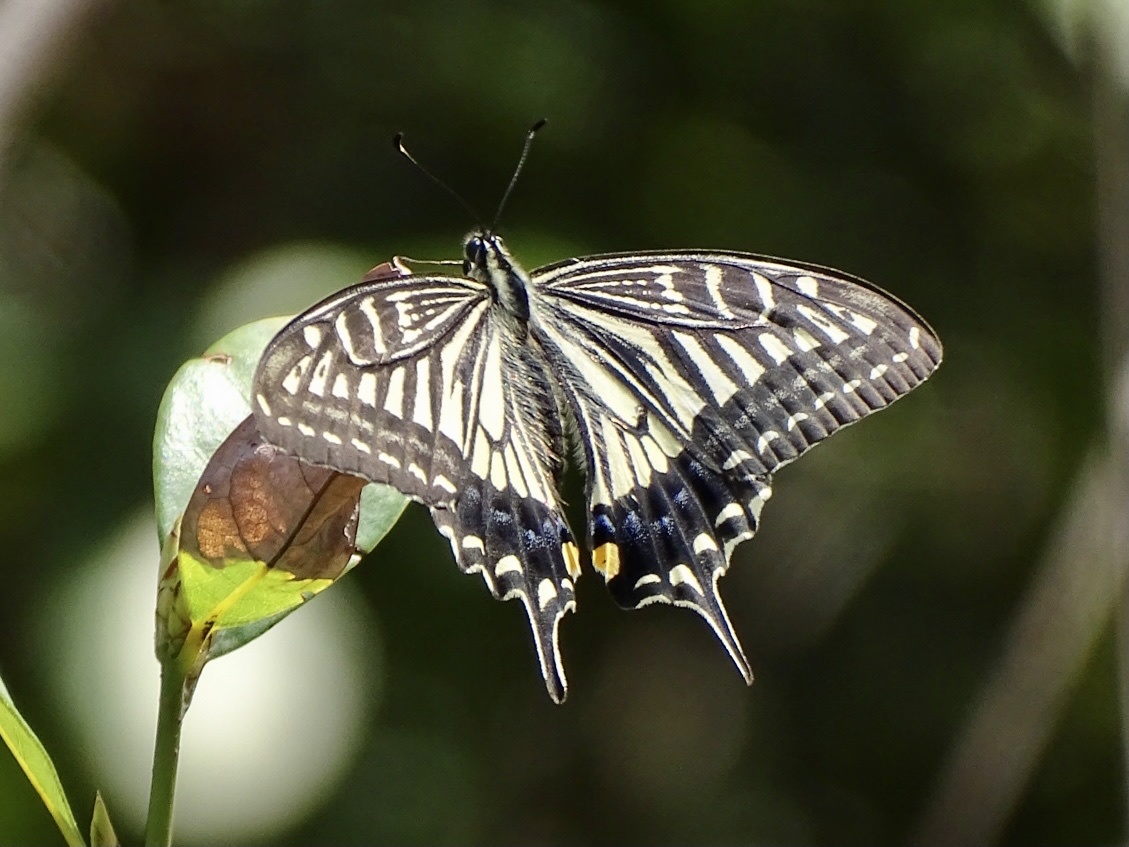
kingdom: Animalia
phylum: Arthropoda
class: Insecta
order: Lepidoptera
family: Papilionidae
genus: Papilio
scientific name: Papilio xuthus
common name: Asian swallowtail
